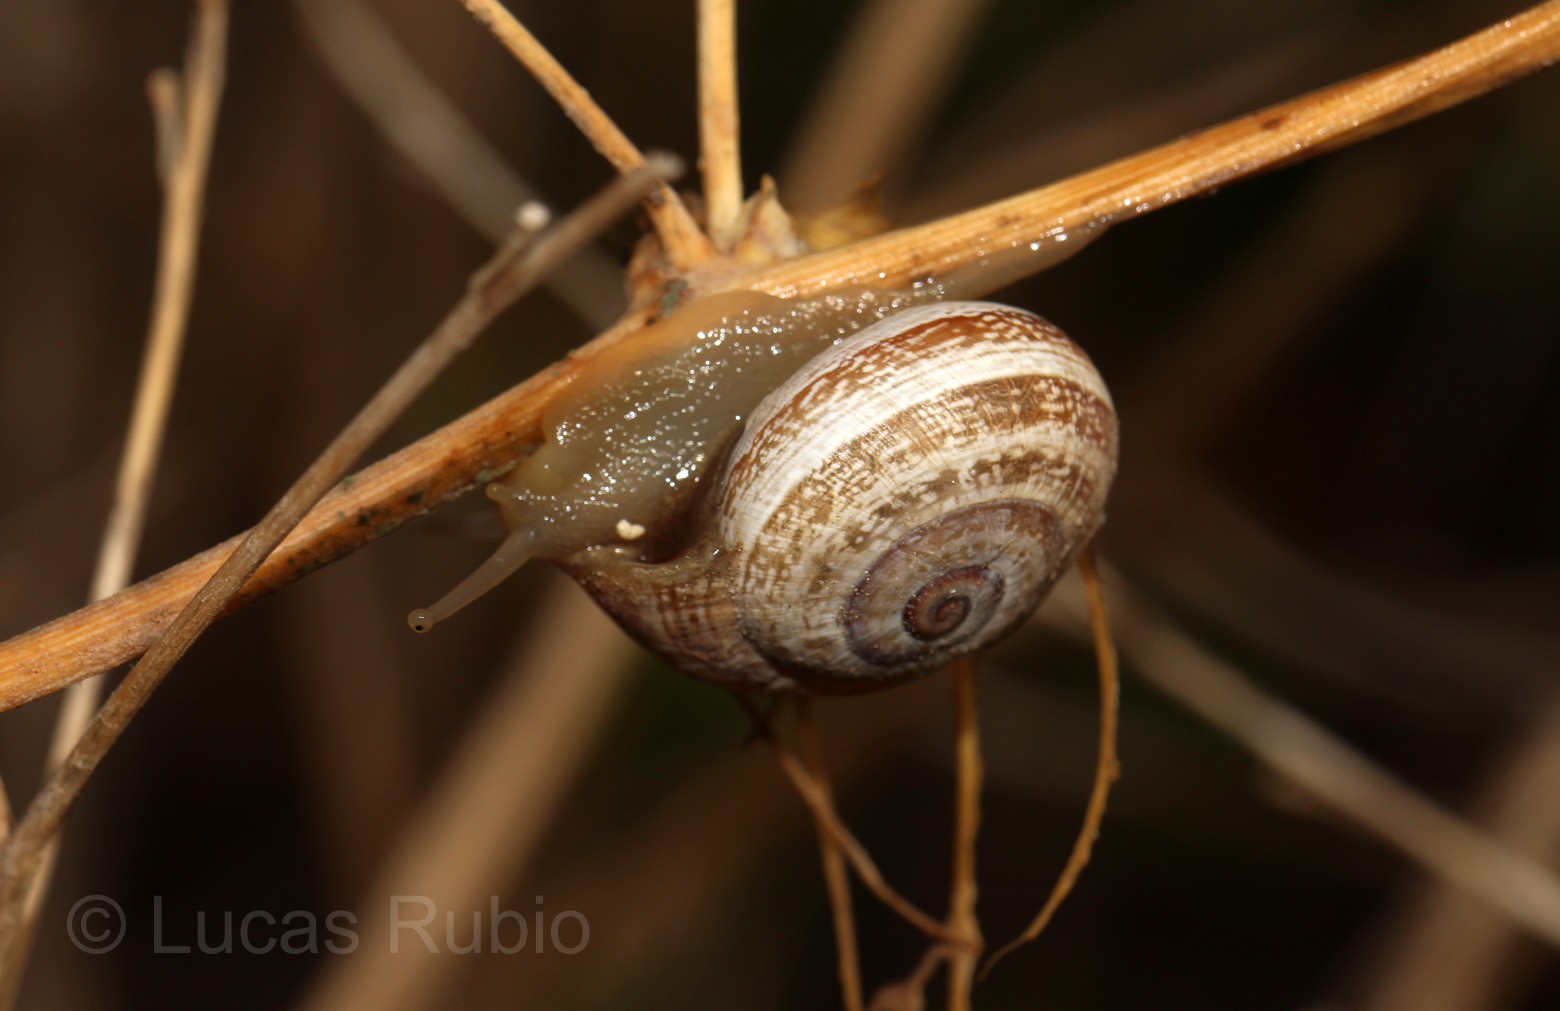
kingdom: Animalia
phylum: Mollusca
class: Gastropoda
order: Stylommatophora
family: Helicidae
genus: Otala
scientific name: Otala punctata
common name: Milk snail
